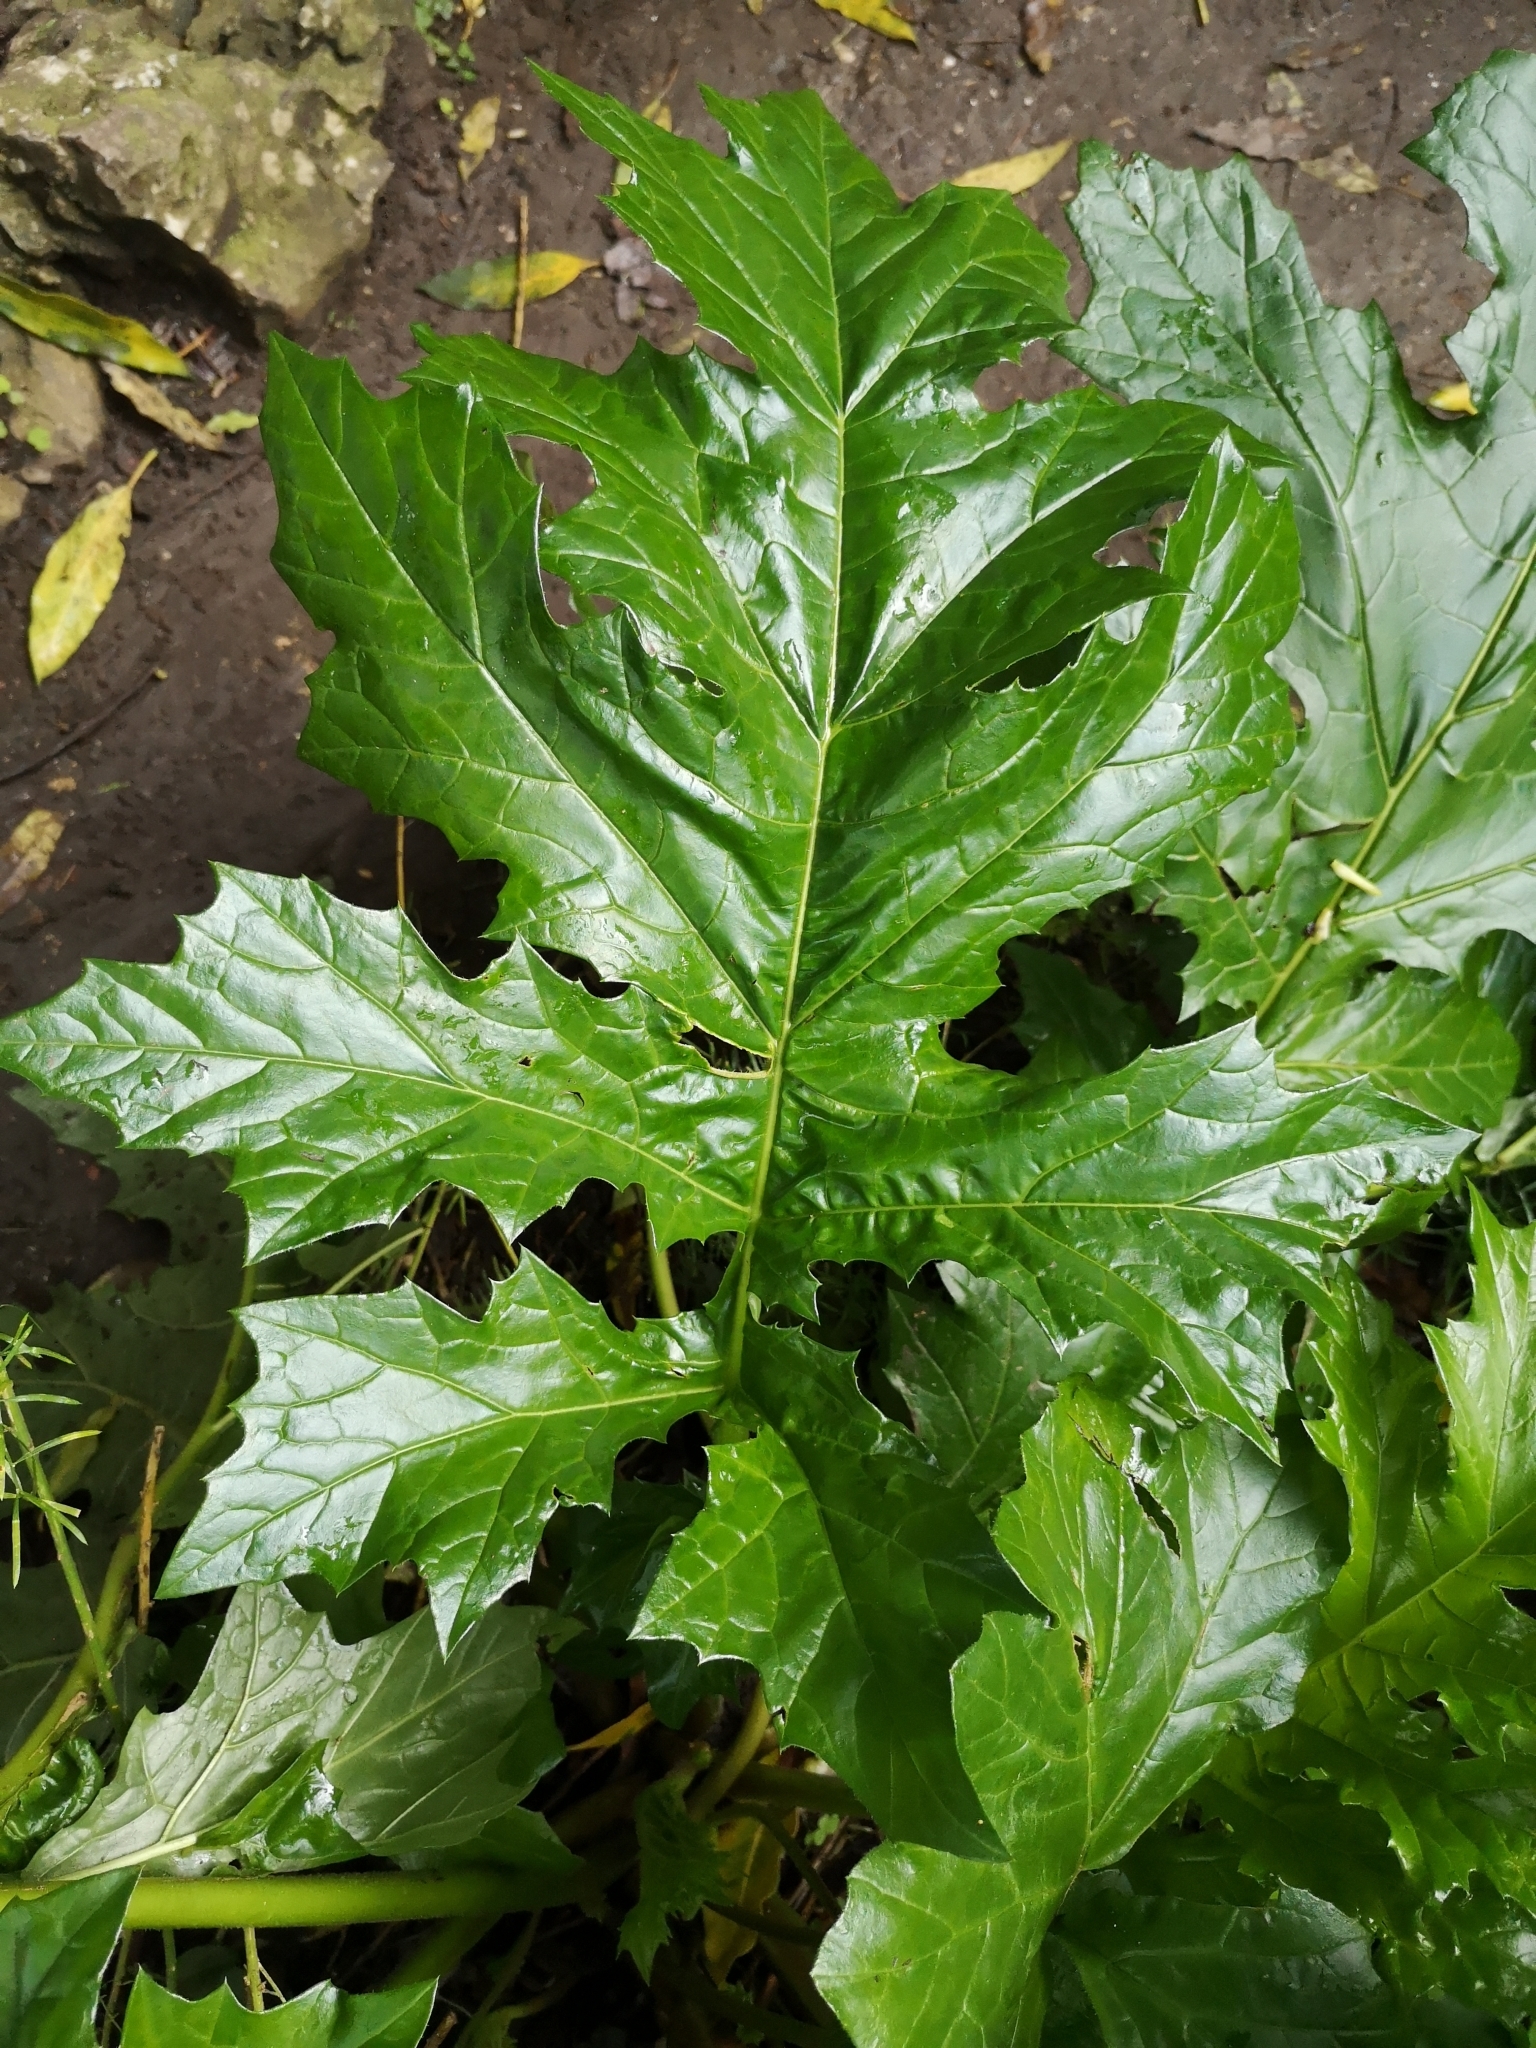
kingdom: Plantae
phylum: Tracheophyta
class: Magnoliopsida
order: Lamiales
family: Acanthaceae
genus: Acanthus
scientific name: Acanthus mollis
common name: Bear's-breech
